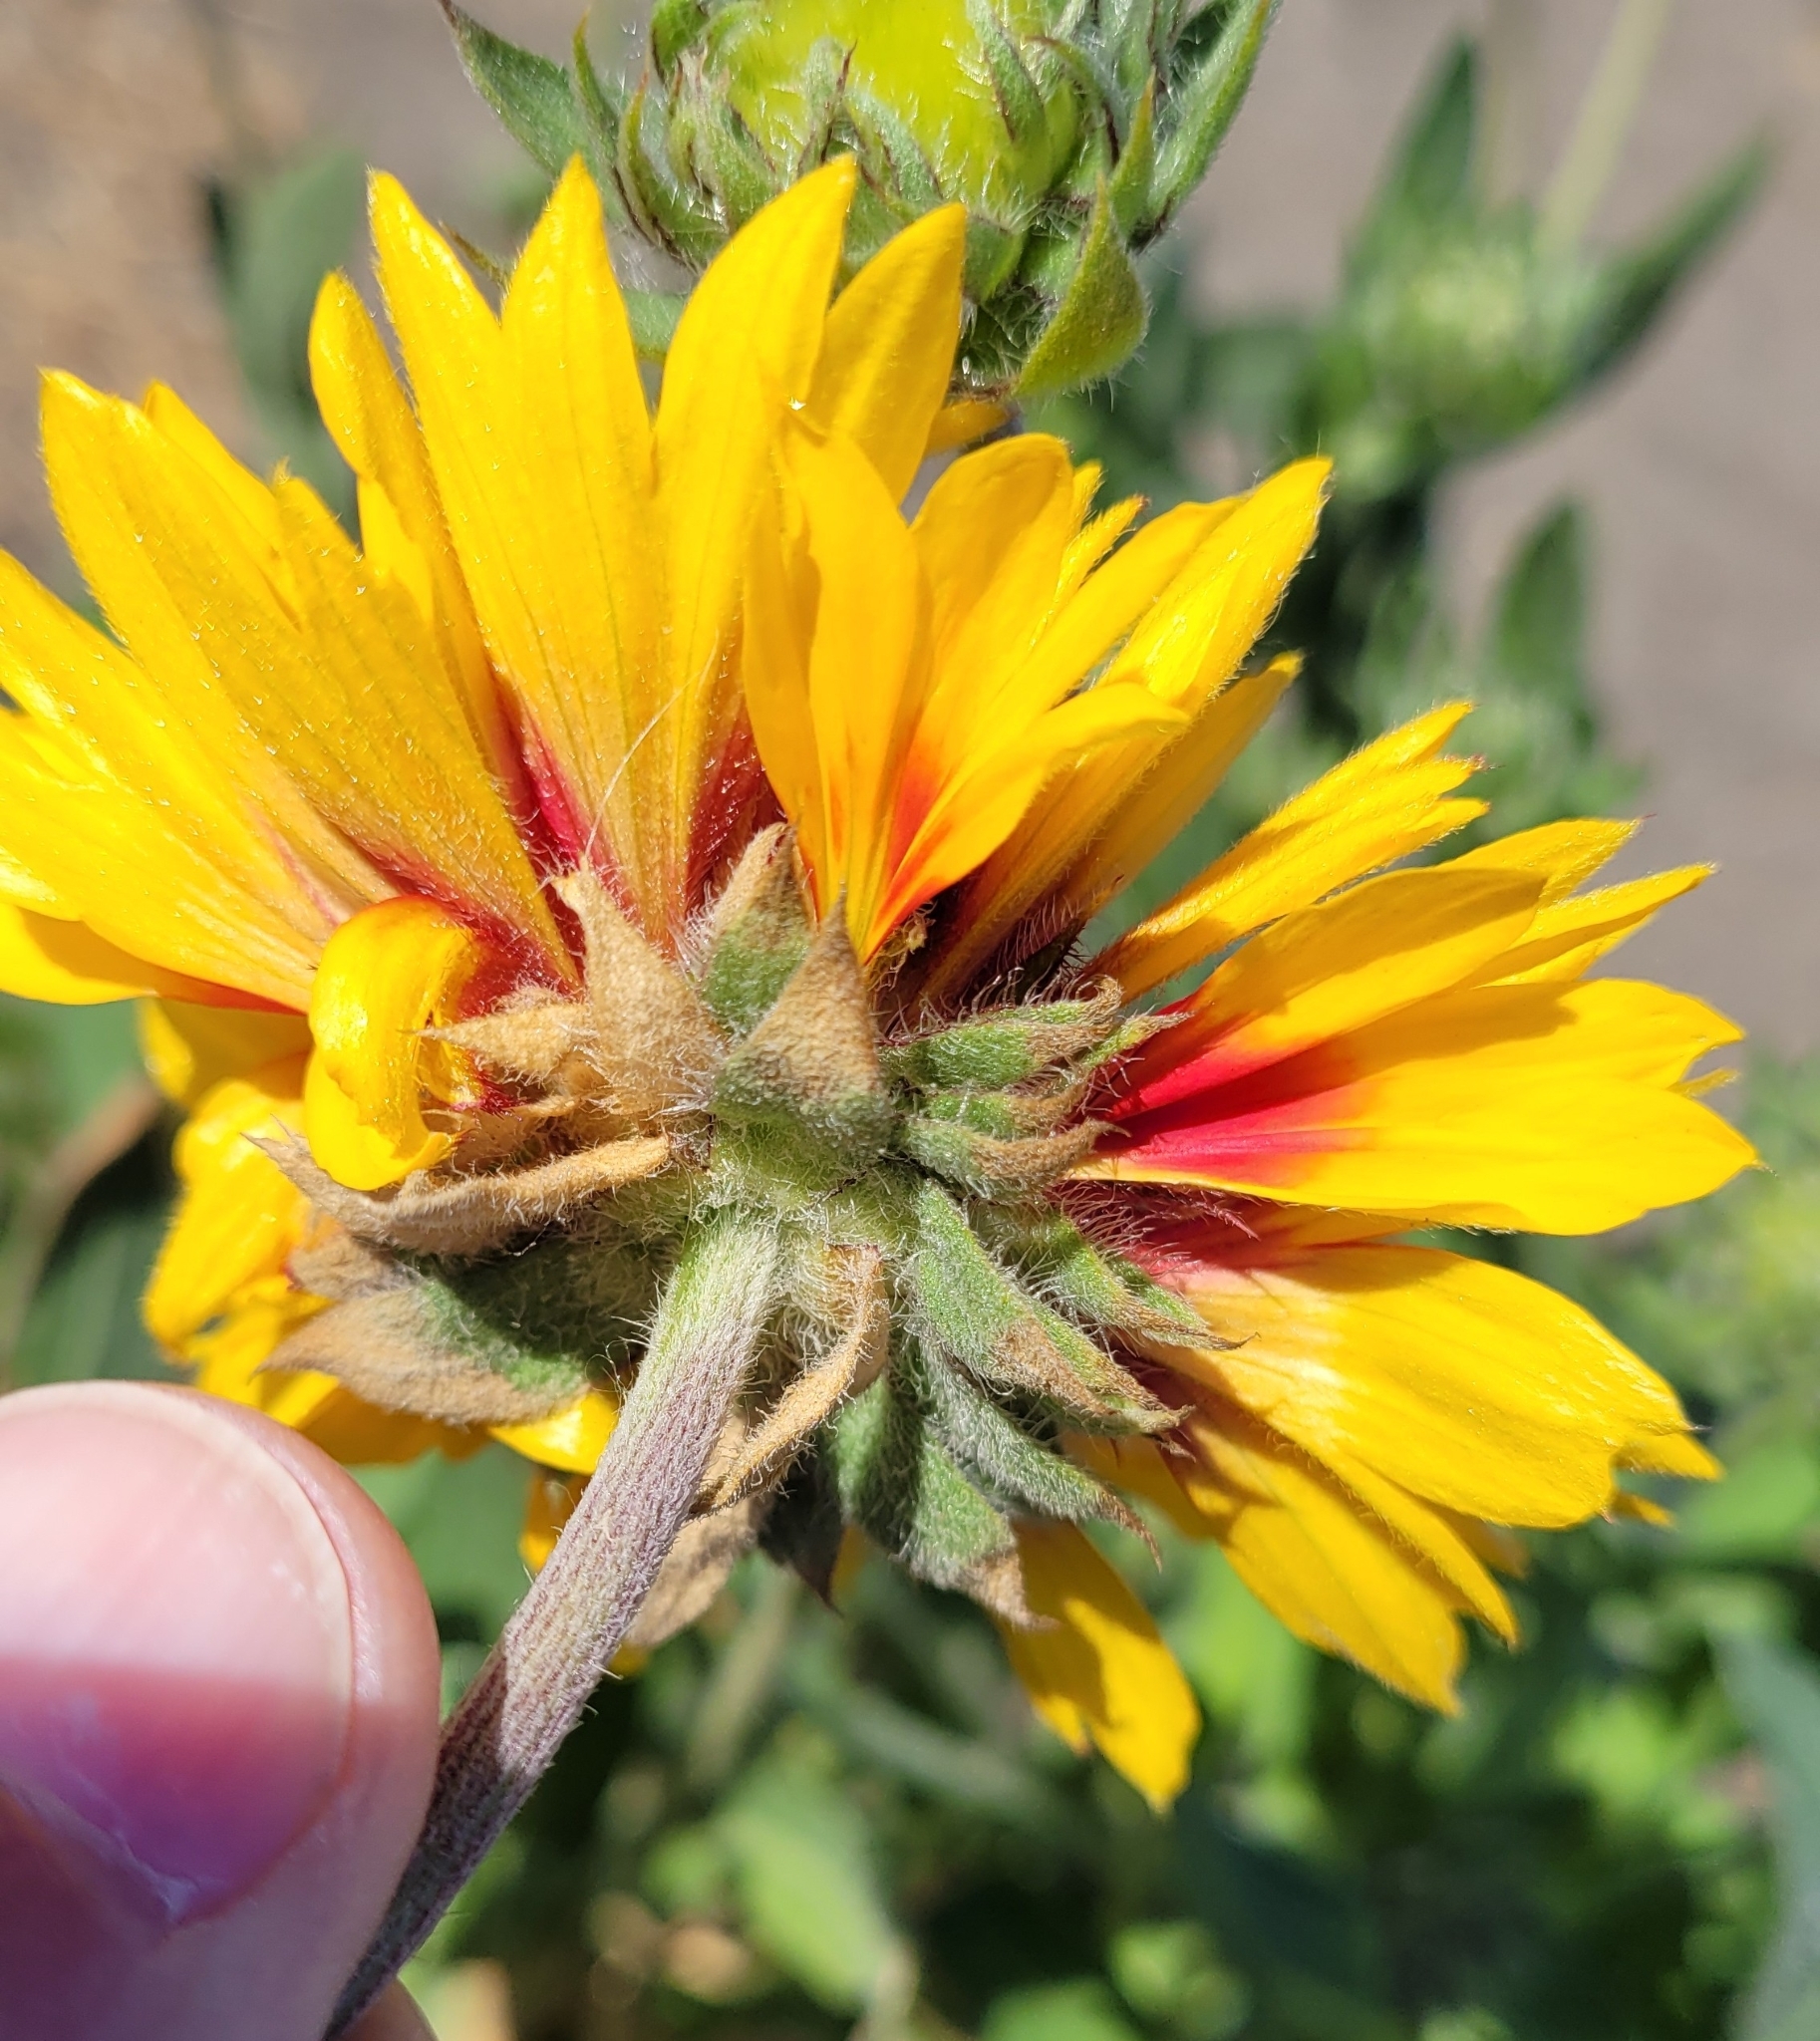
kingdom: Plantae
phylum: Tracheophyta
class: Magnoliopsida
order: Asterales
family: Asteraceae
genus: Gaillardia
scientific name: Gaillardia aristata
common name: Blanket-flower
